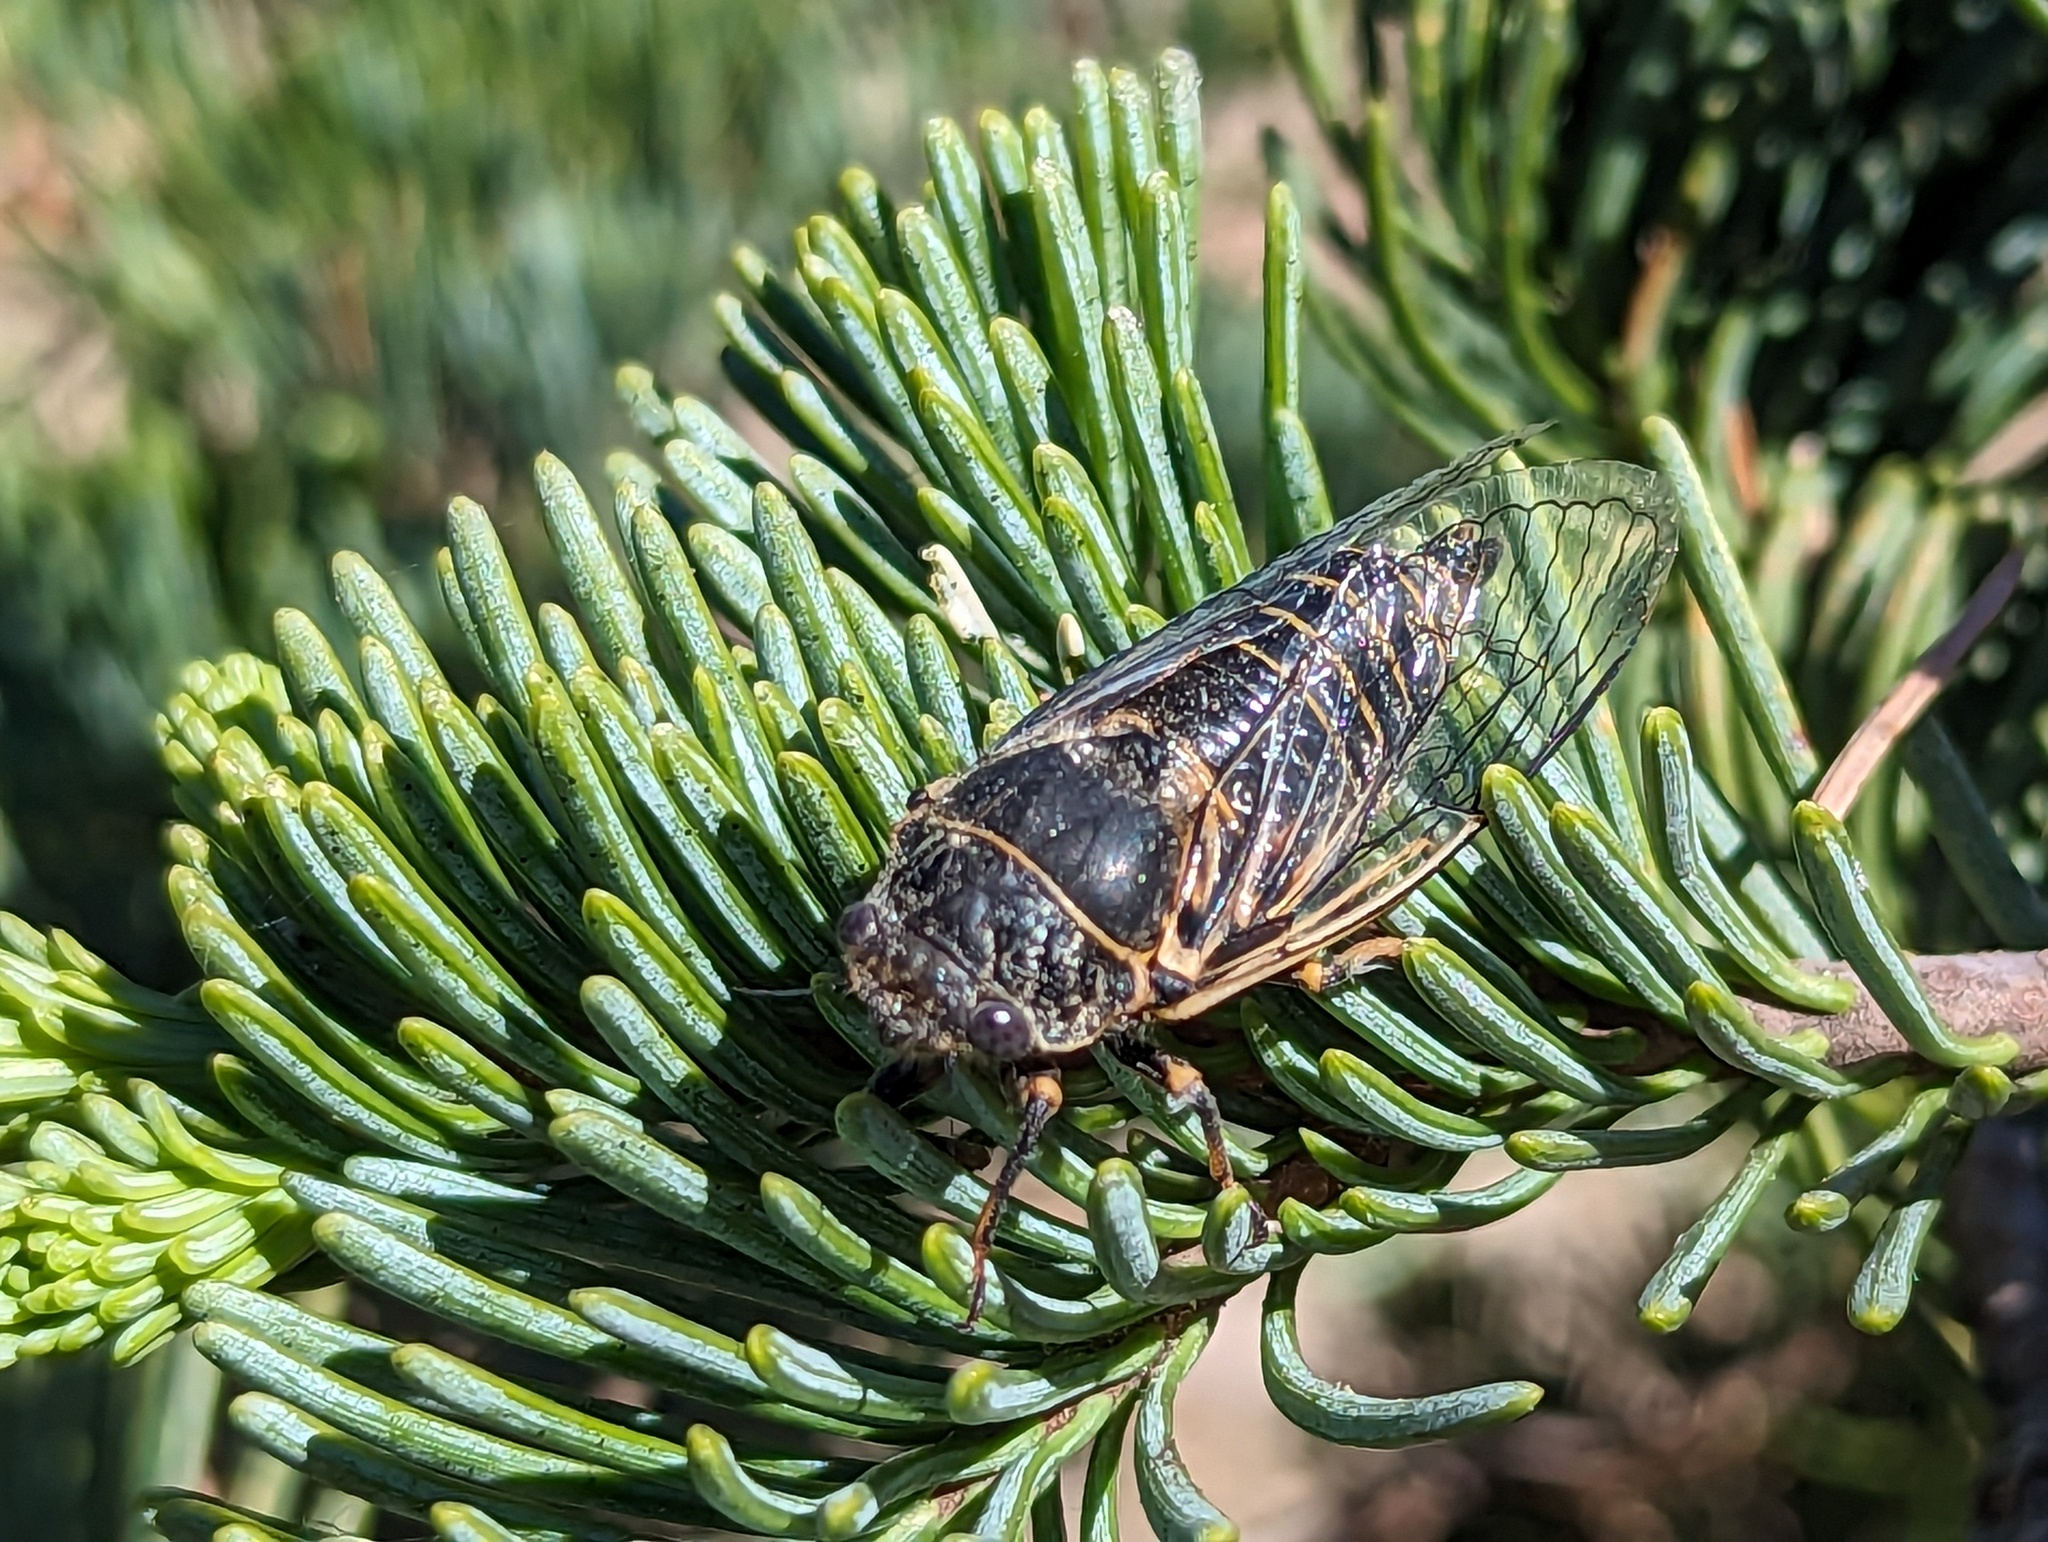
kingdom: Animalia
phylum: Arthropoda
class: Insecta
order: Hemiptera
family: Cicadidae
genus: Okanagana
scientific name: Okanagana villosa
